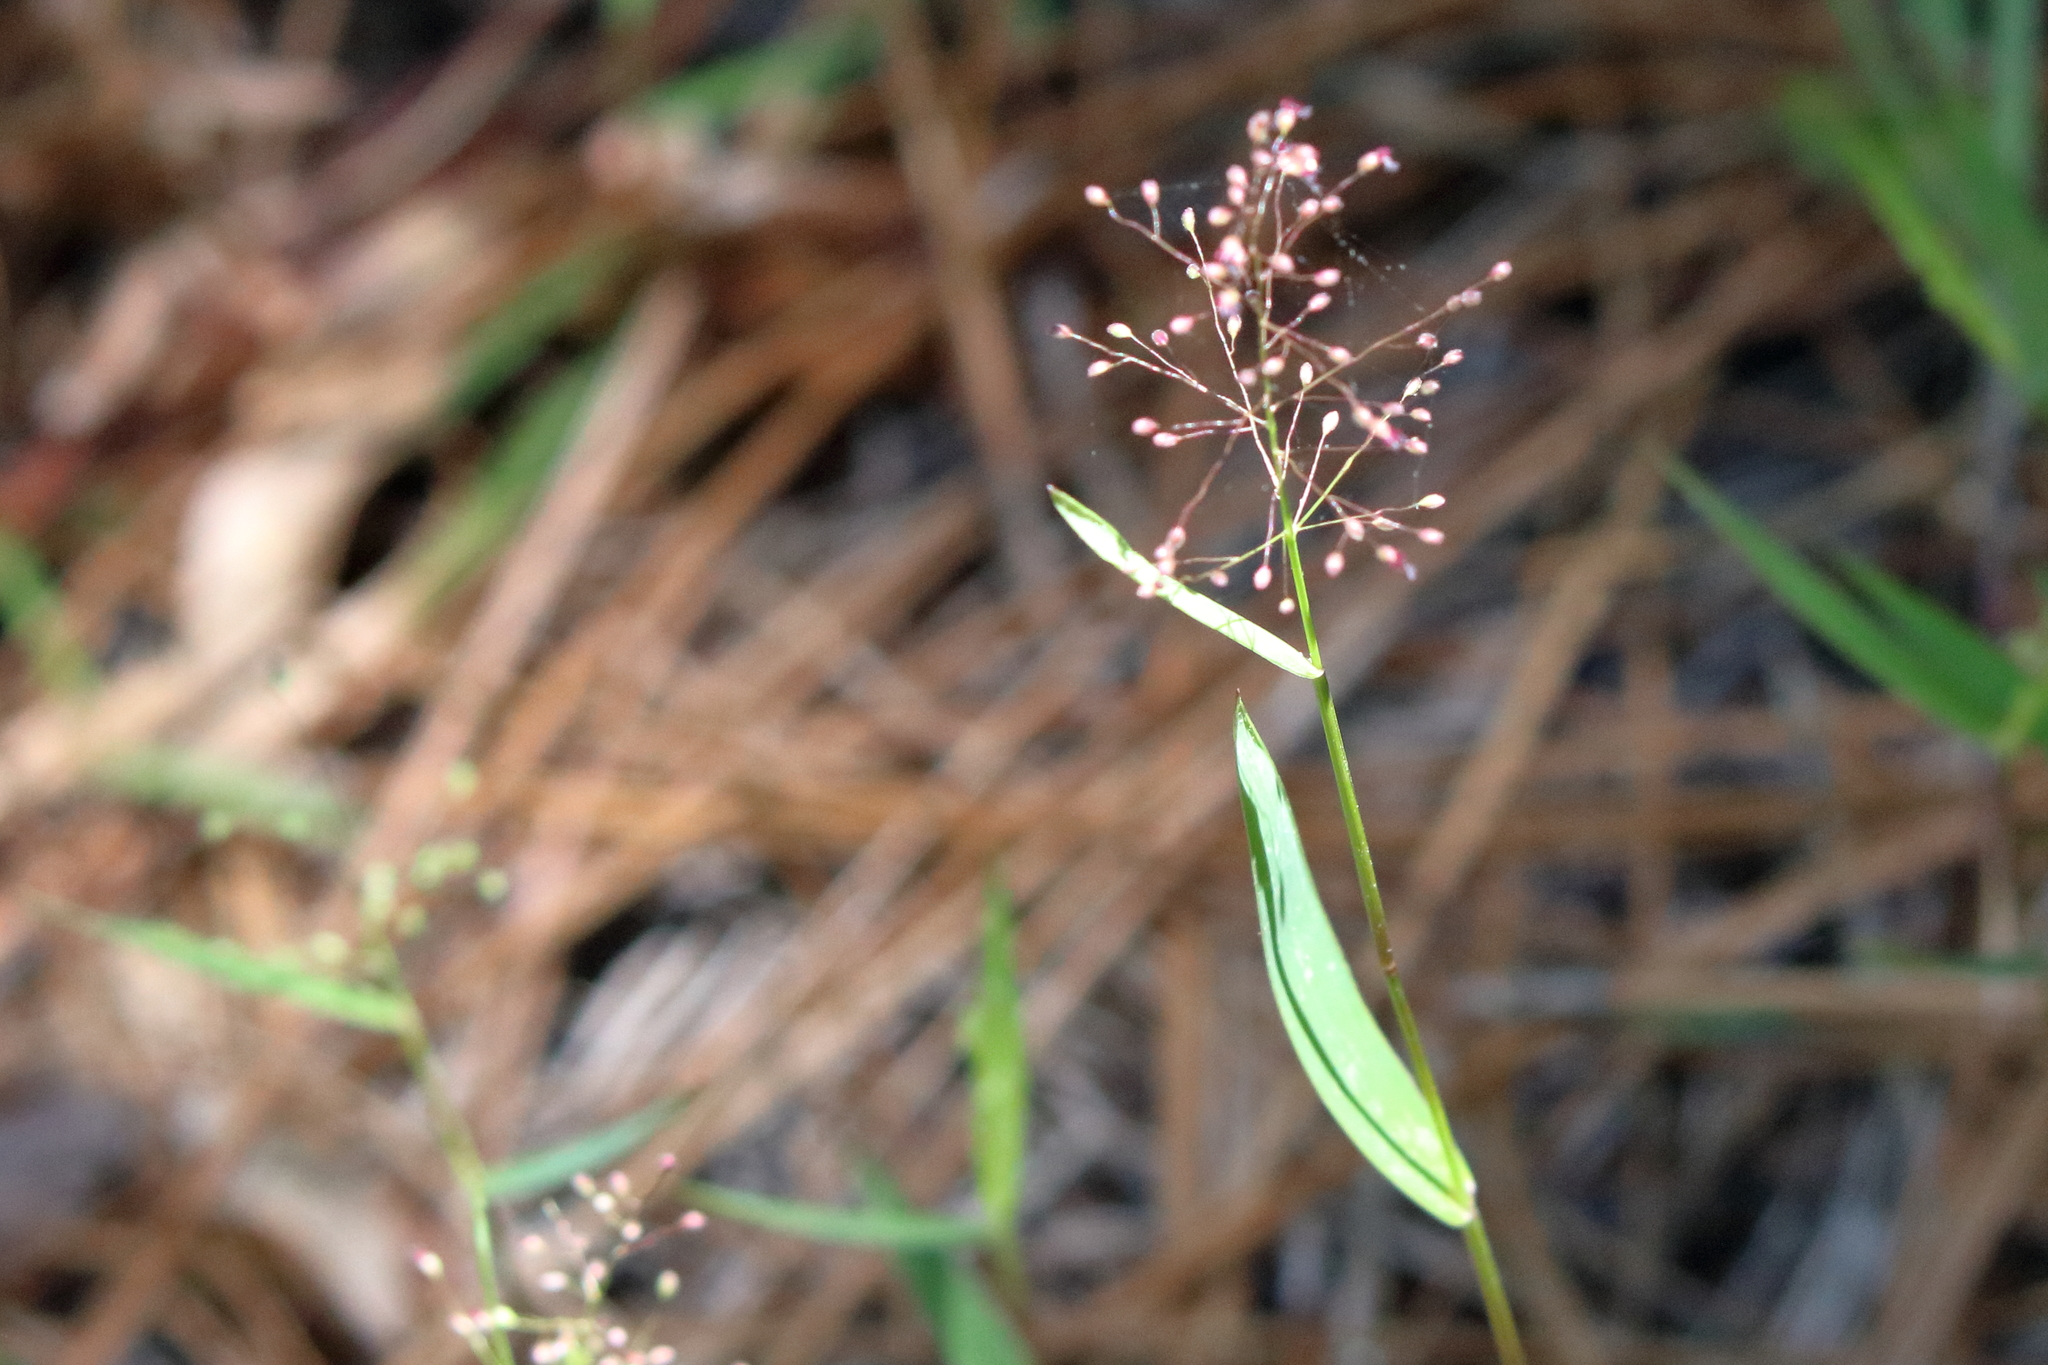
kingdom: Plantae
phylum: Tracheophyta
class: Liliopsida
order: Poales
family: Poaceae
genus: Dichanthelium
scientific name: Dichanthelium tenue
